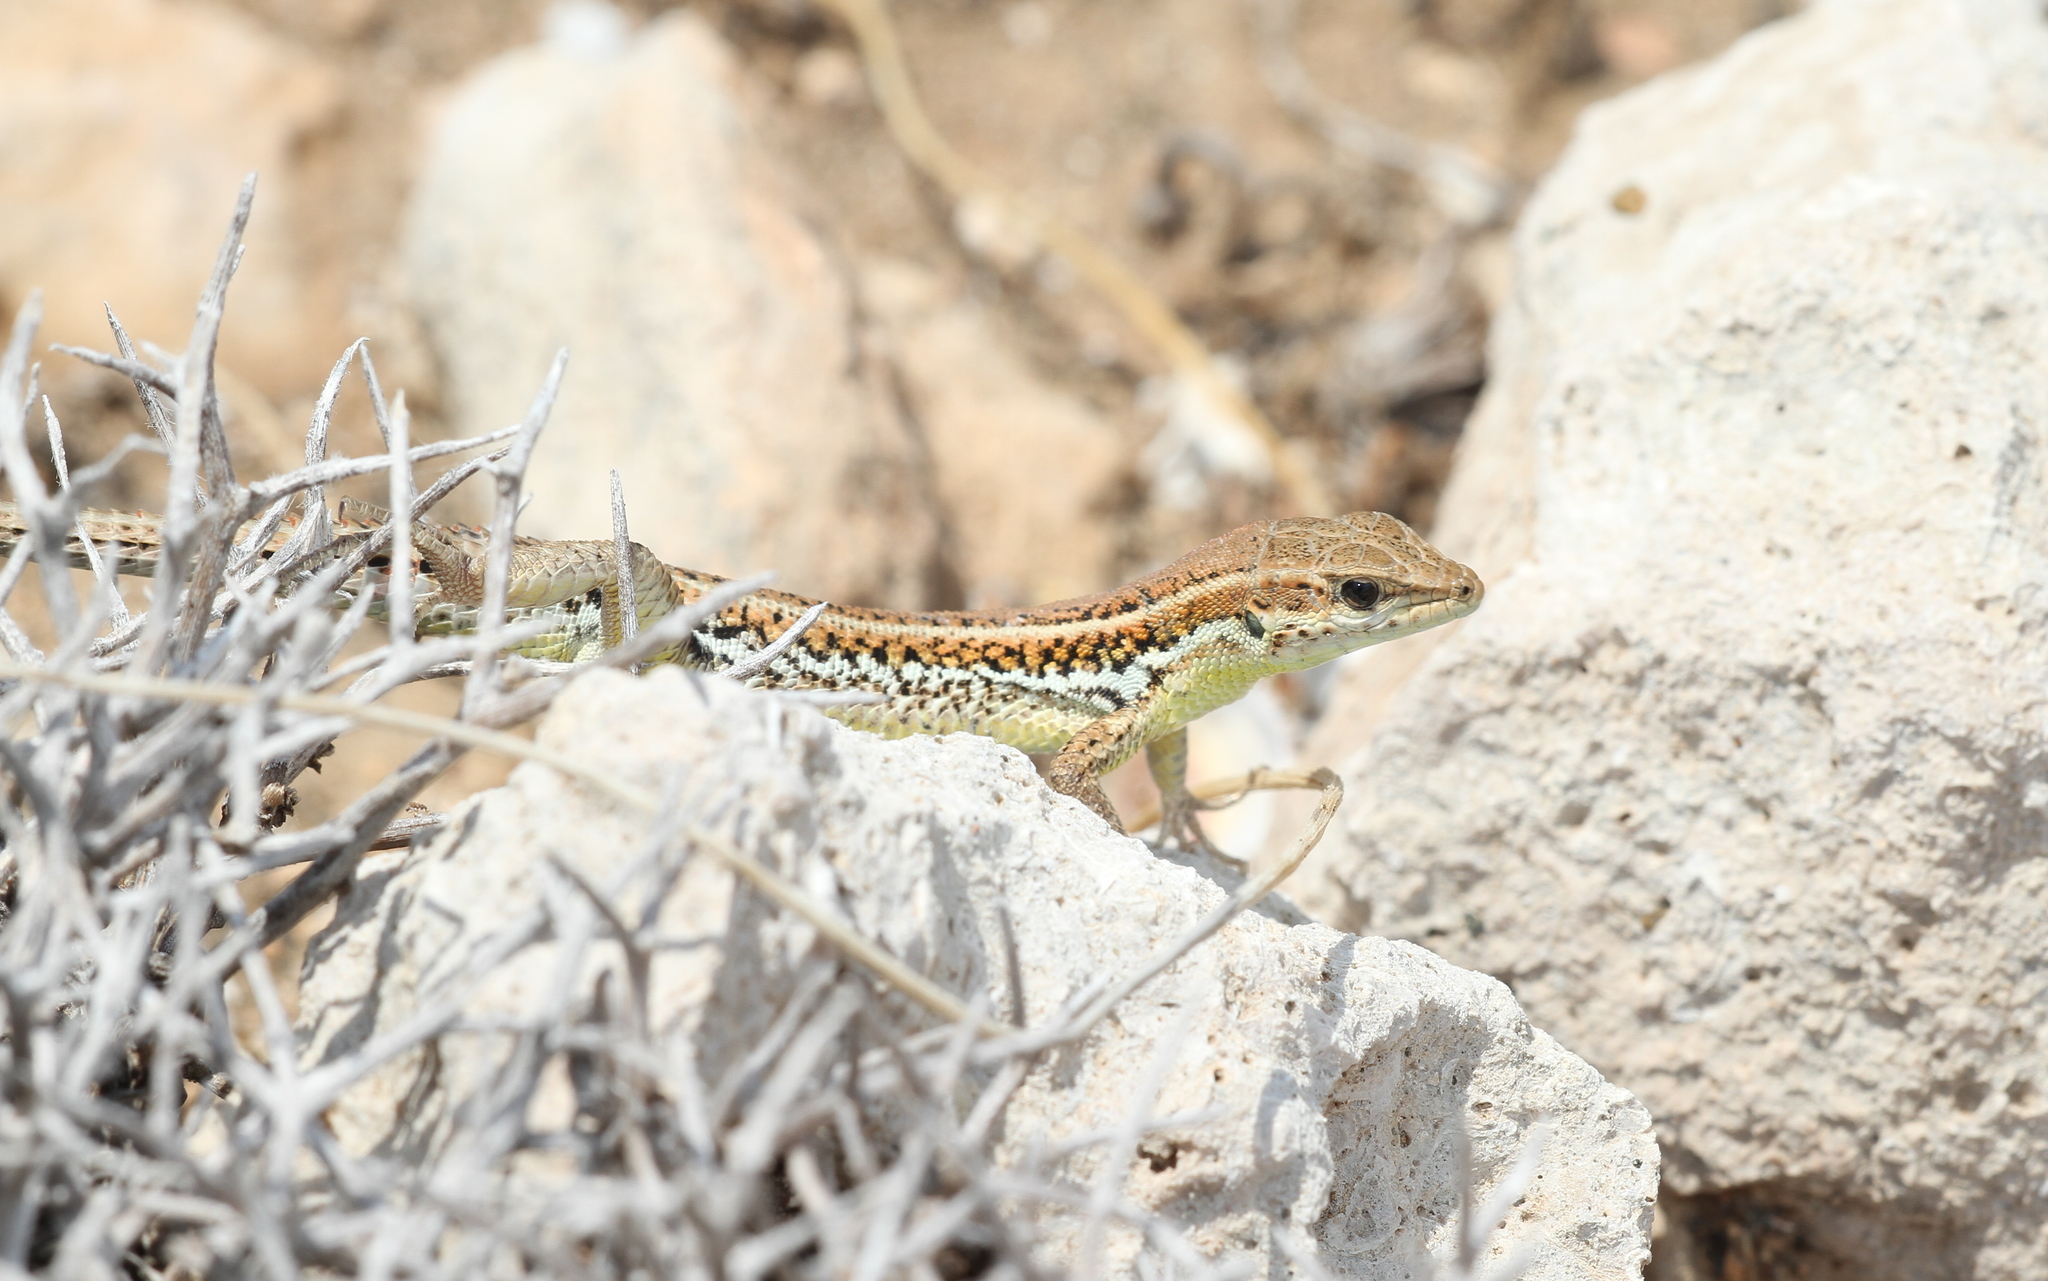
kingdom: Animalia
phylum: Chordata
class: Squamata
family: Lacertidae
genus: Ophisops
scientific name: Ophisops elegans
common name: Snake-eyed lizard
